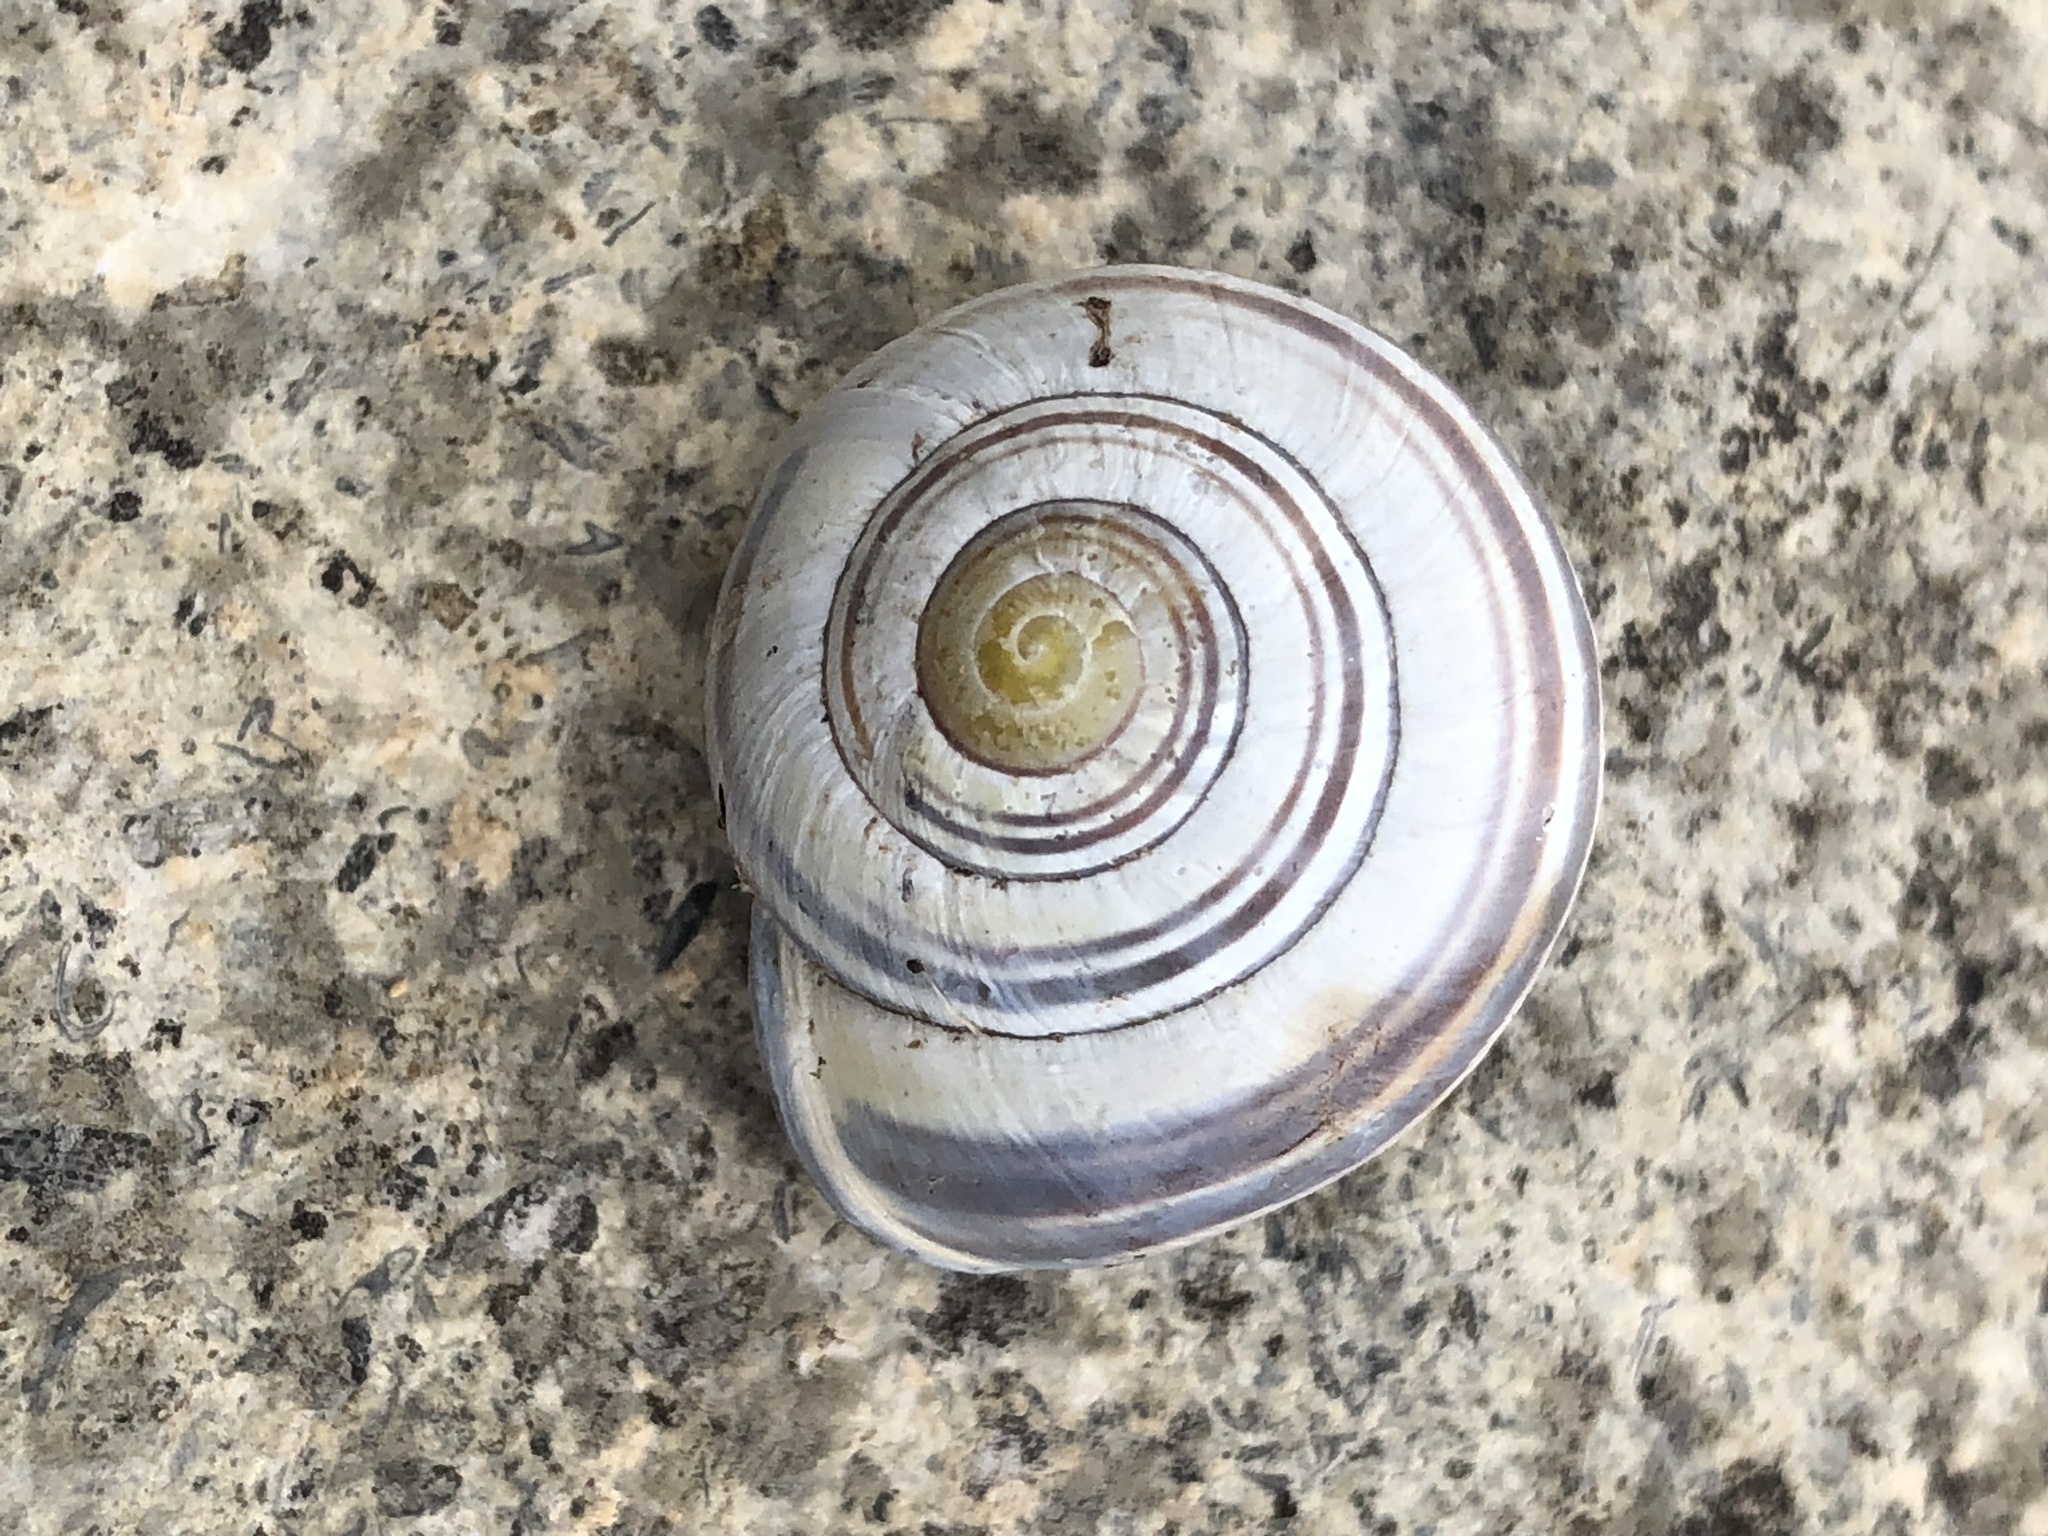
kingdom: Animalia
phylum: Mollusca
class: Gastropoda
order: Stylommatophora
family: Helicidae
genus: Cepaea
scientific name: Cepaea nemoralis
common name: Grovesnail
